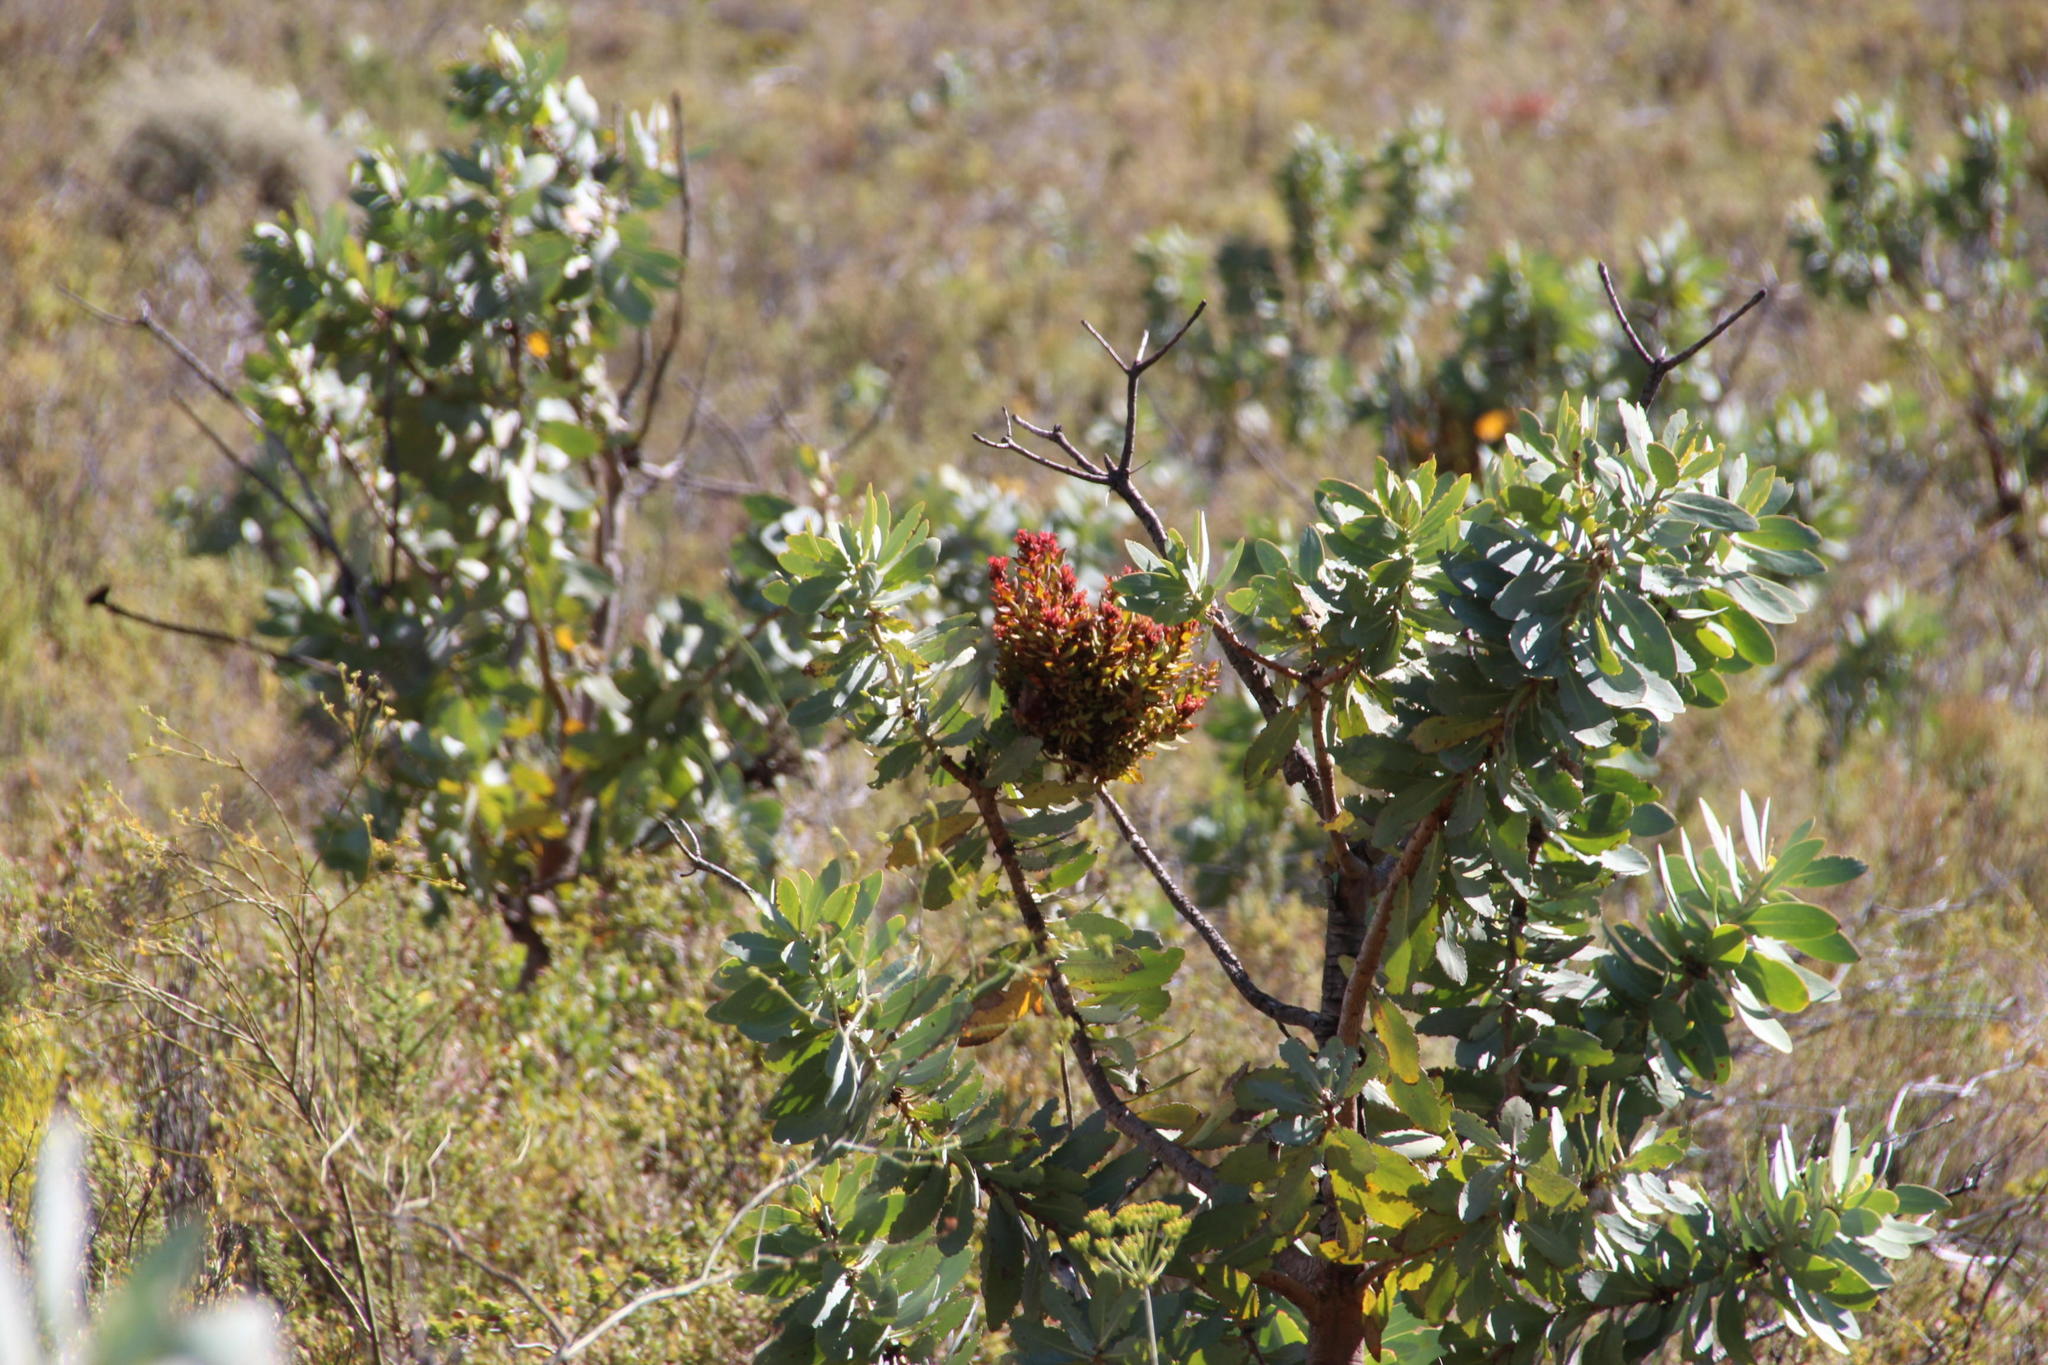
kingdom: Bacteria
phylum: Firmicutes
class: Bacilli
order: Acholeplasmatales
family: Acholeplasmataceae
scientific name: Acholeplasmataceae
